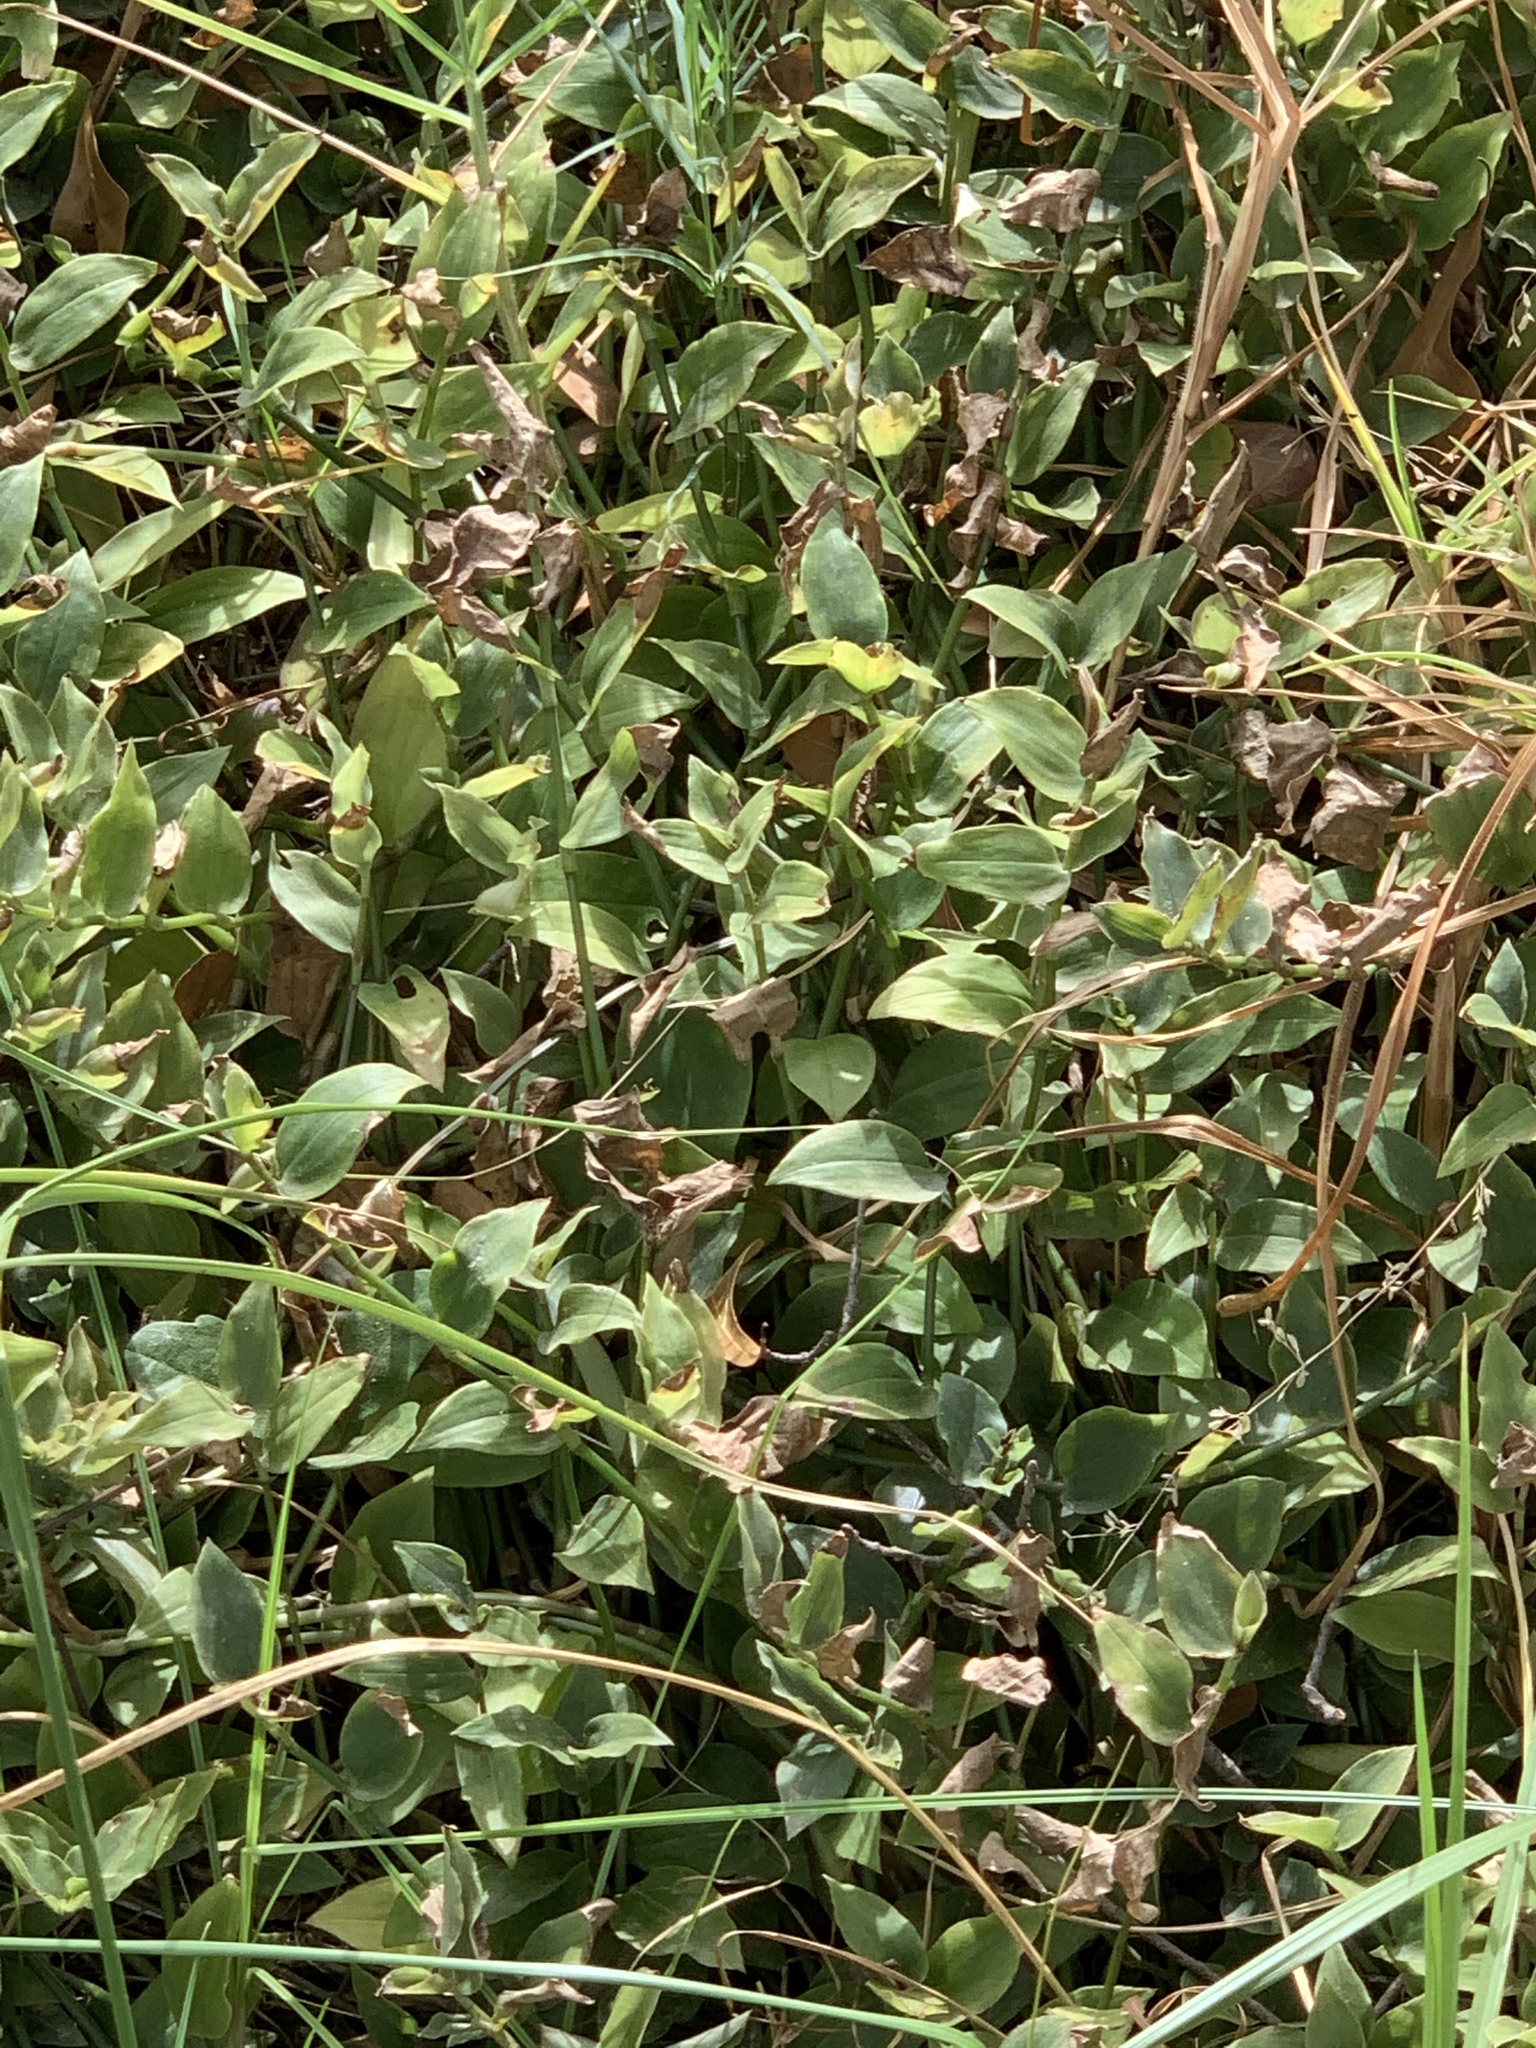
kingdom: Plantae
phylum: Tracheophyta
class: Liliopsida
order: Commelinales
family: Commelinaceae
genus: Tradescantia
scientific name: Tradescantia fluminensis
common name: Wandering-jew
